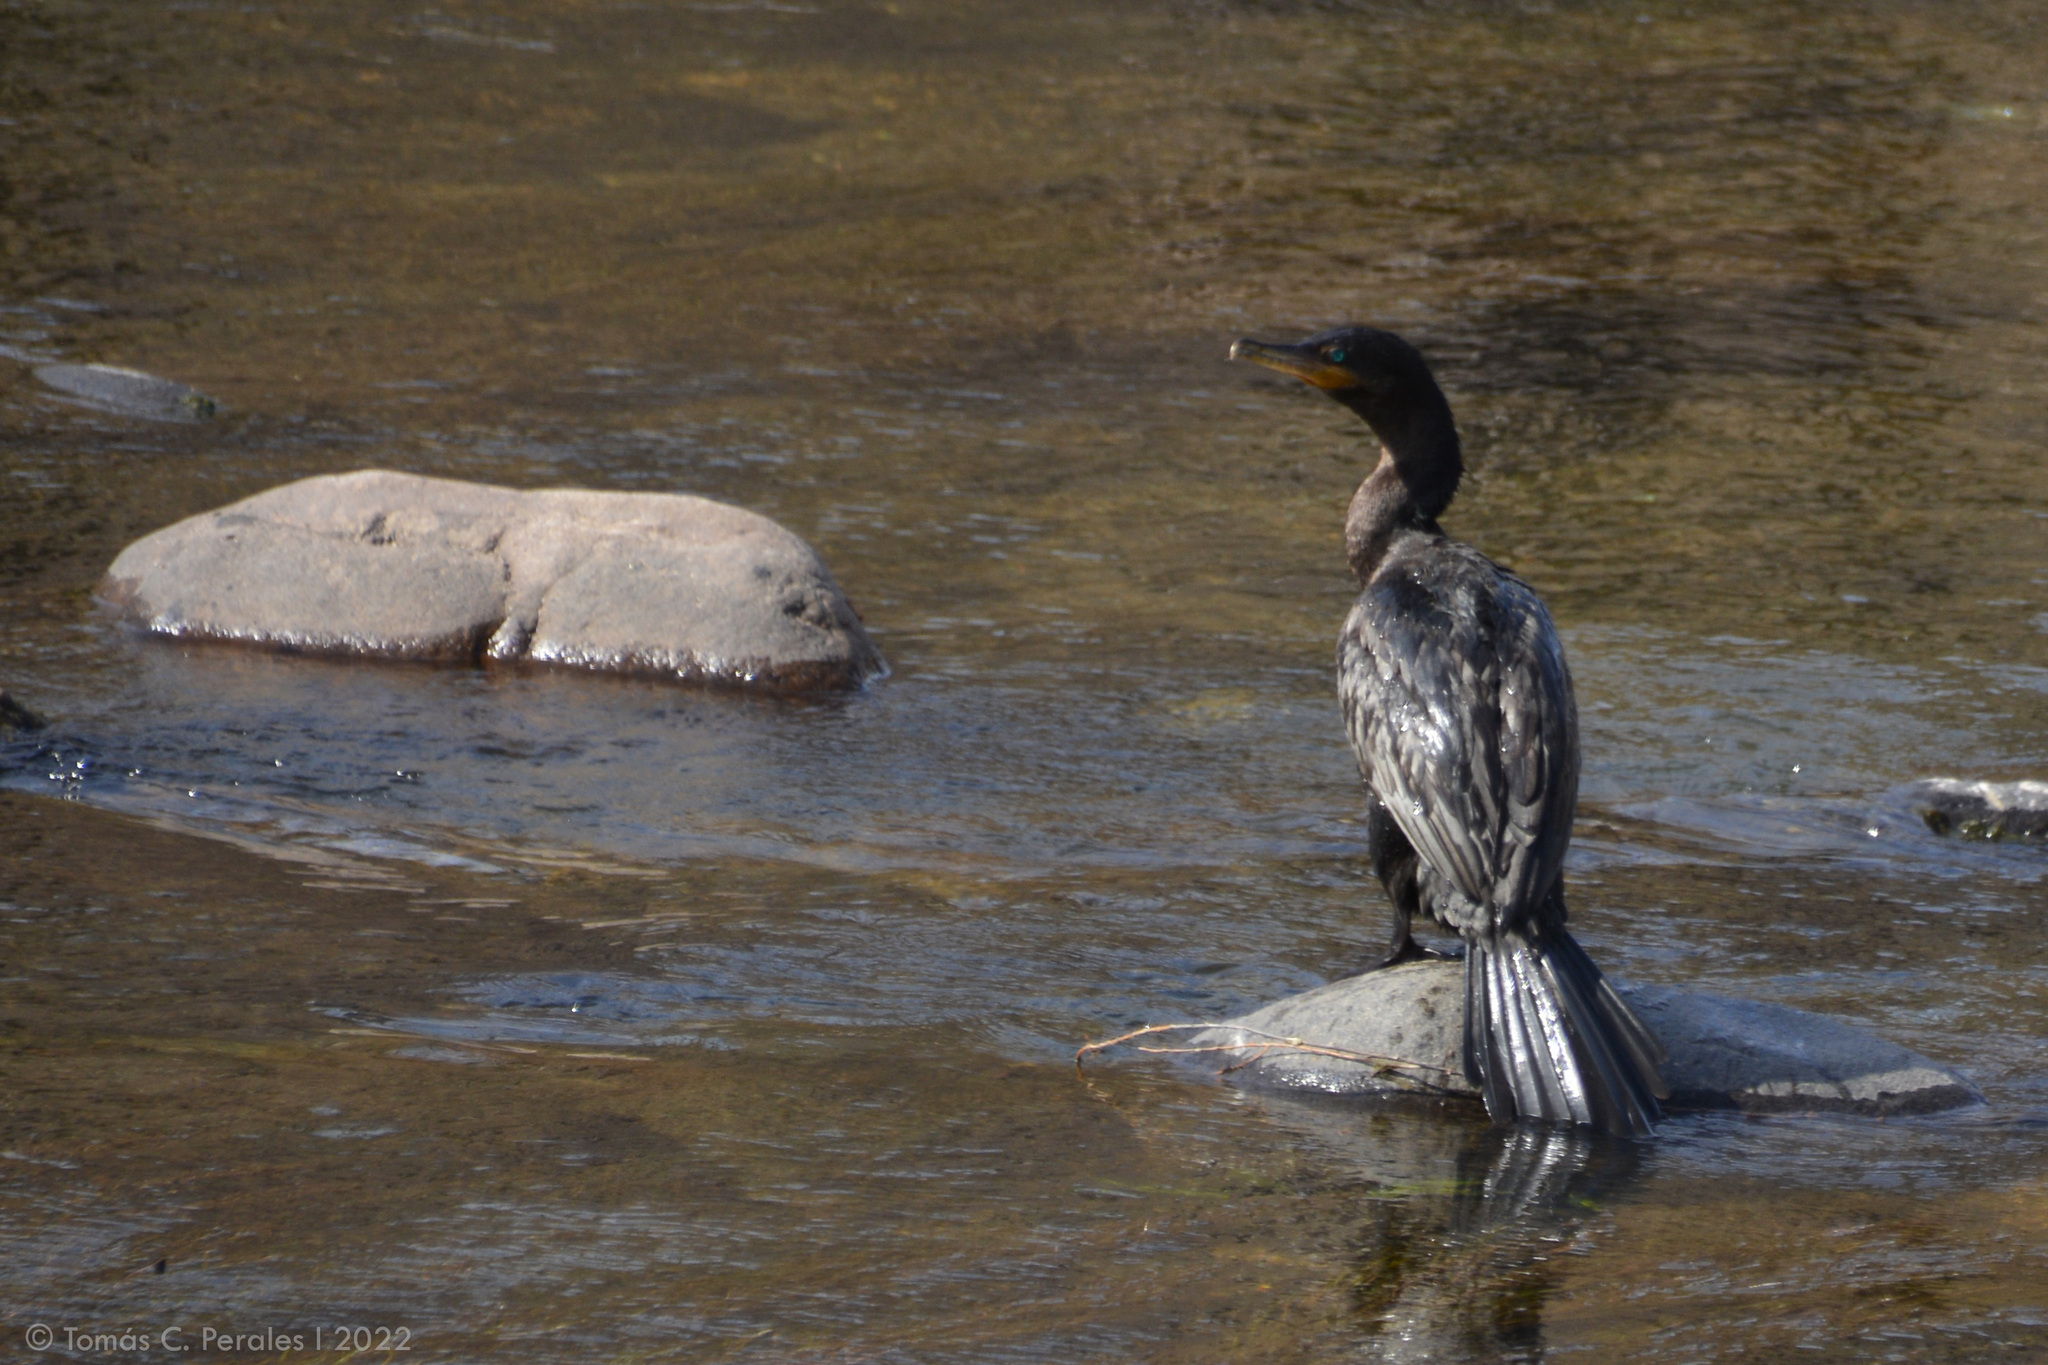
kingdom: Animalia
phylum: Chordata
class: Aves
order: Suliformes
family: Phalacrocoracidae
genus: Phalacrocorax
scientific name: Phalacrocorax brasilianus
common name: Neotropic cormorant
